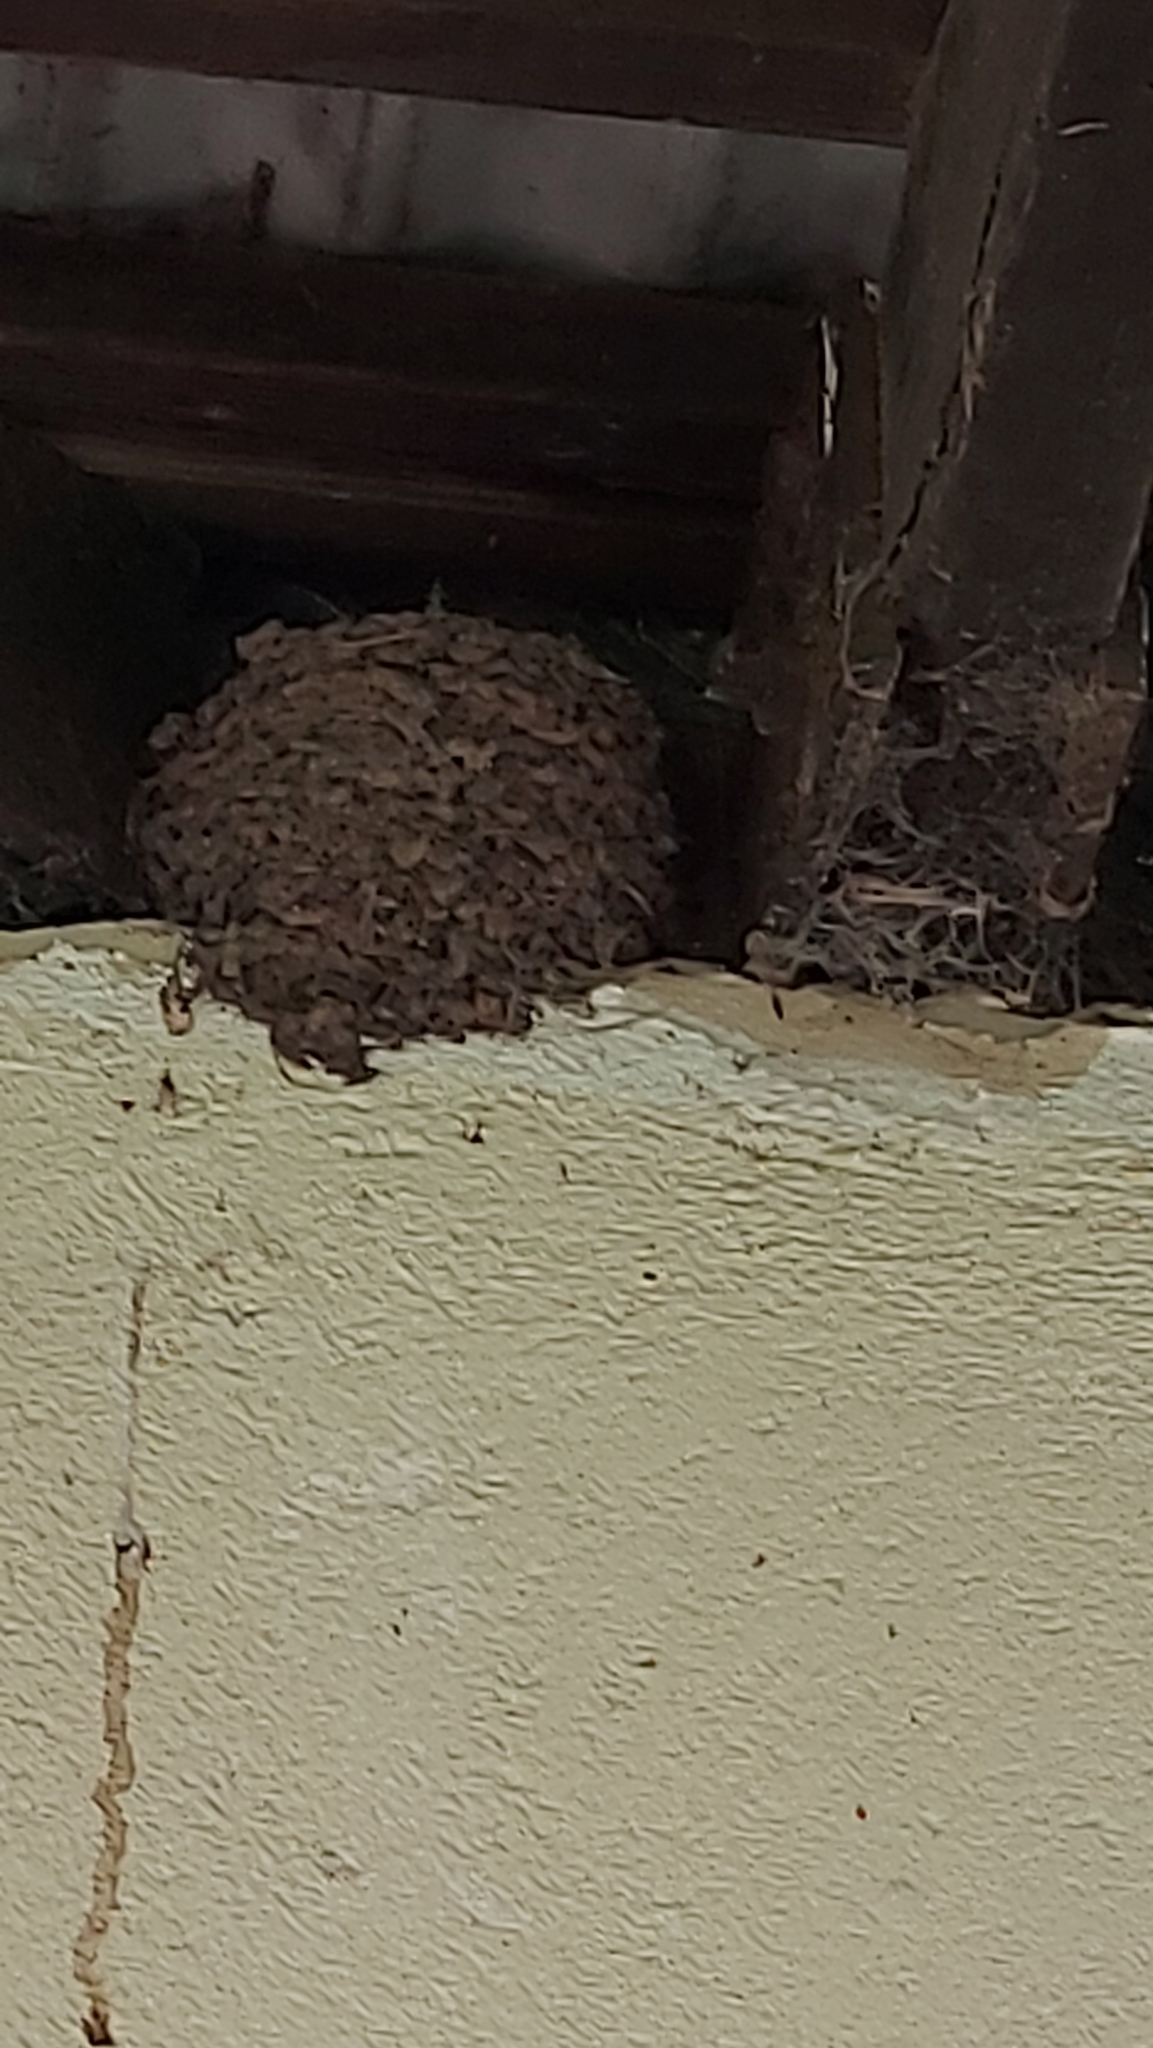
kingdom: Animalia
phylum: Chordata
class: Aves
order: Passeriformes
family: Hirundinidae
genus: Hirundo
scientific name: Hirundo neoxena
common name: Welcome swallow
